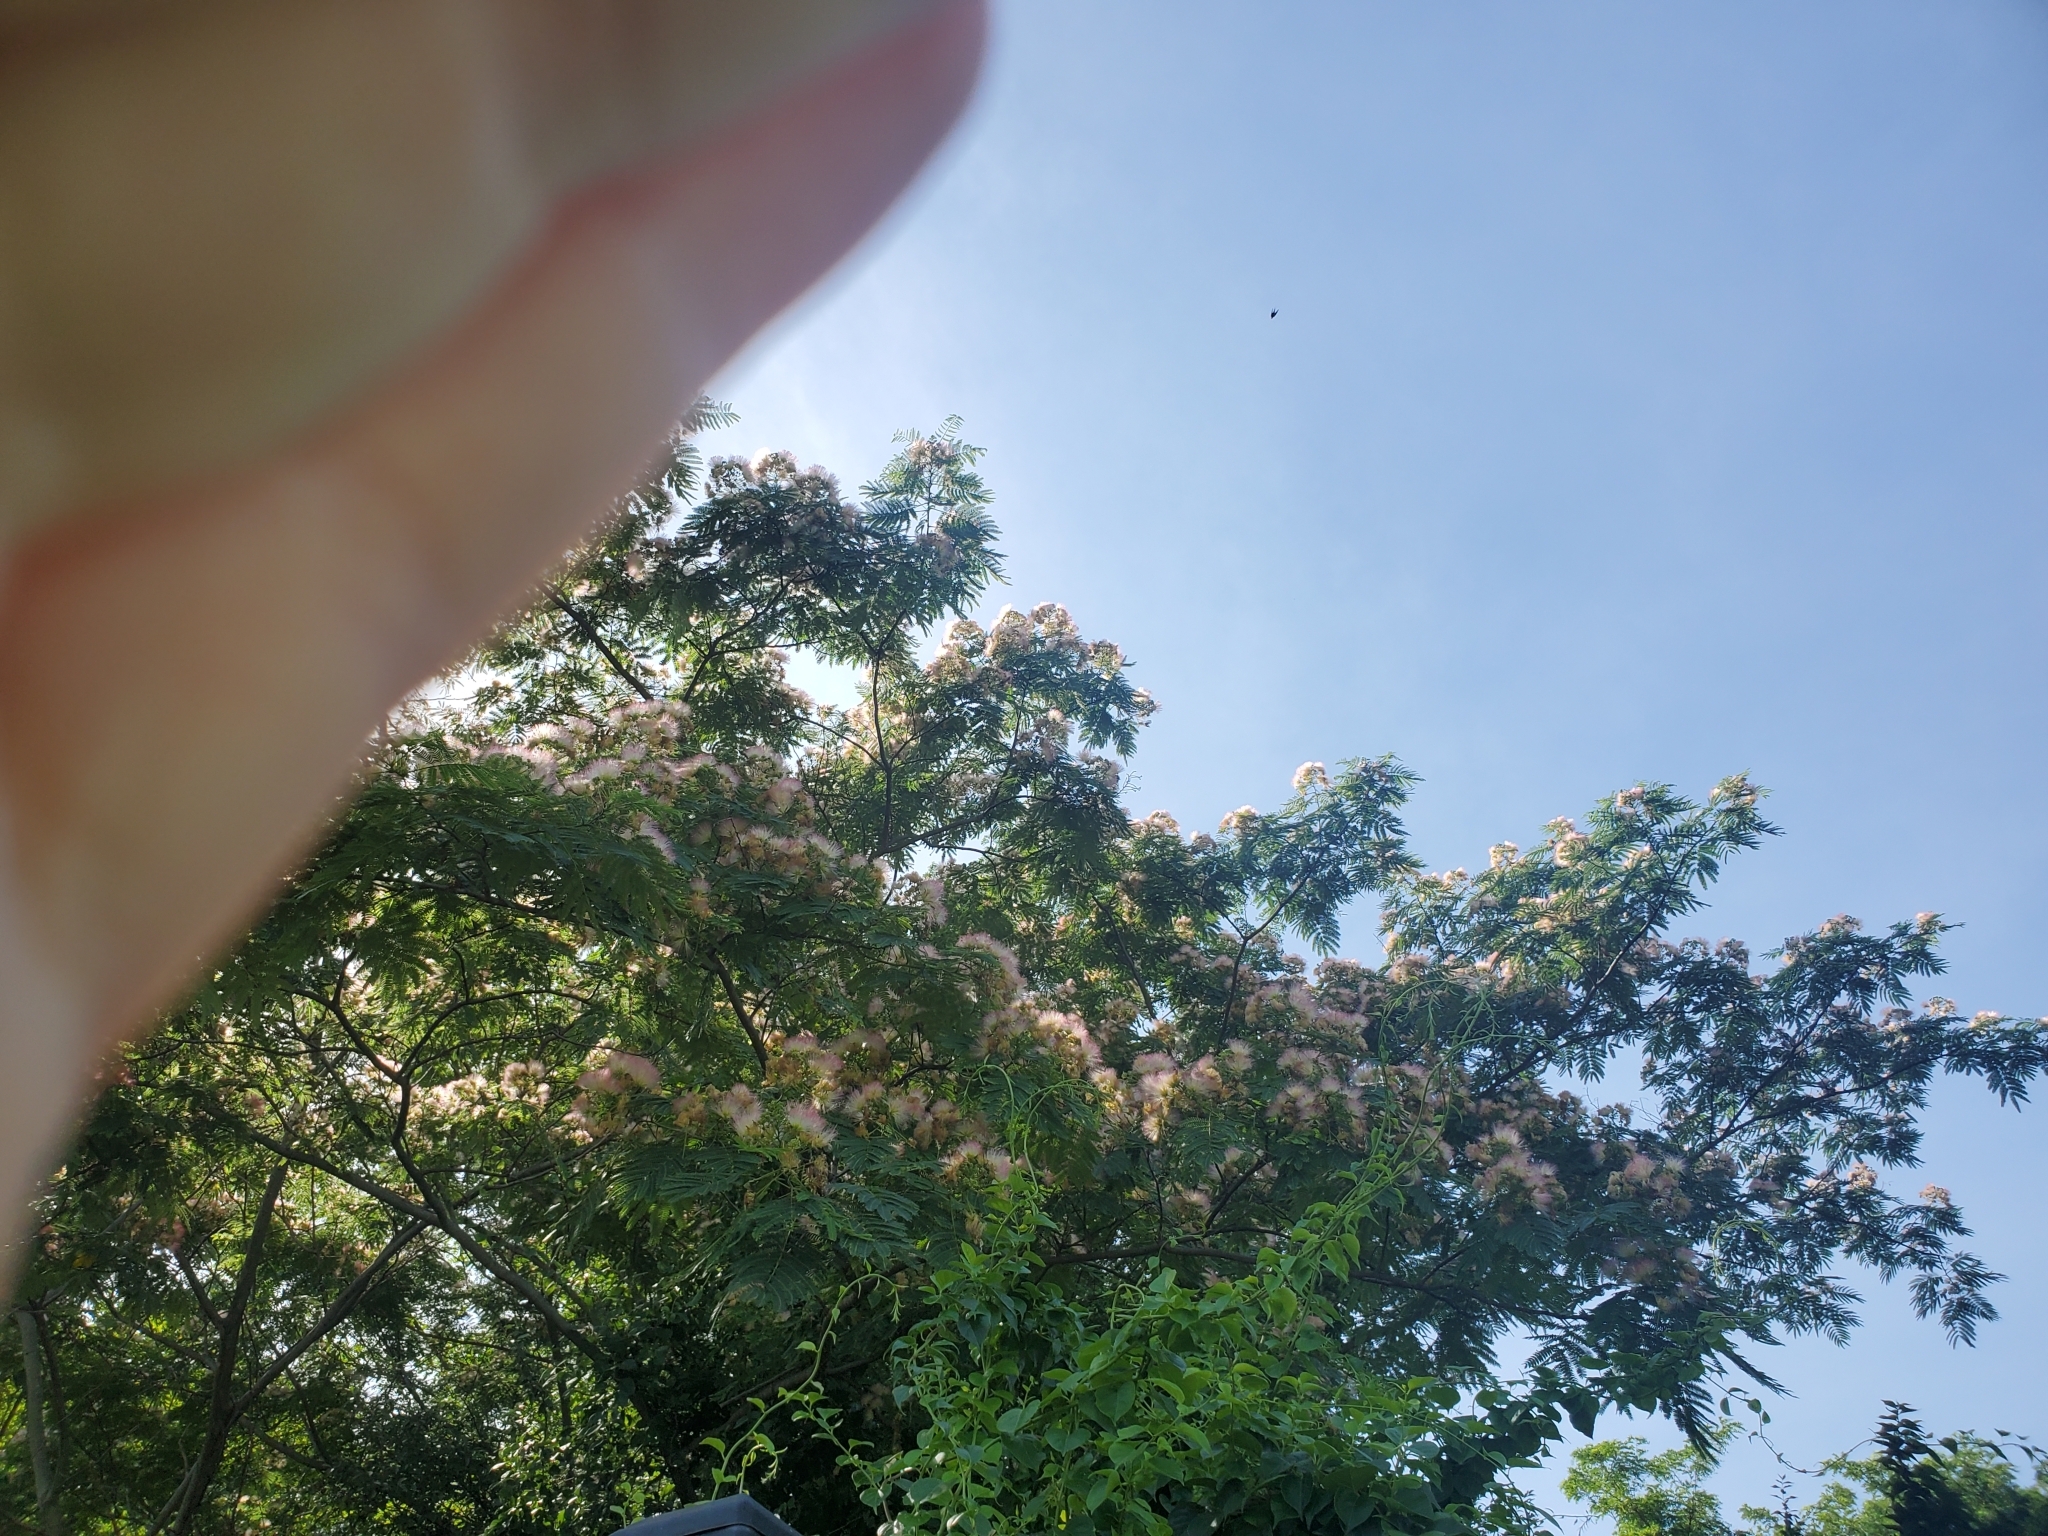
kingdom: Plantae
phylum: Tracheophyta
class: Magnoliopsida
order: Fabales
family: Fabaceae
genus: Albizia
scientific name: Albizia julibrissin
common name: Silktree
